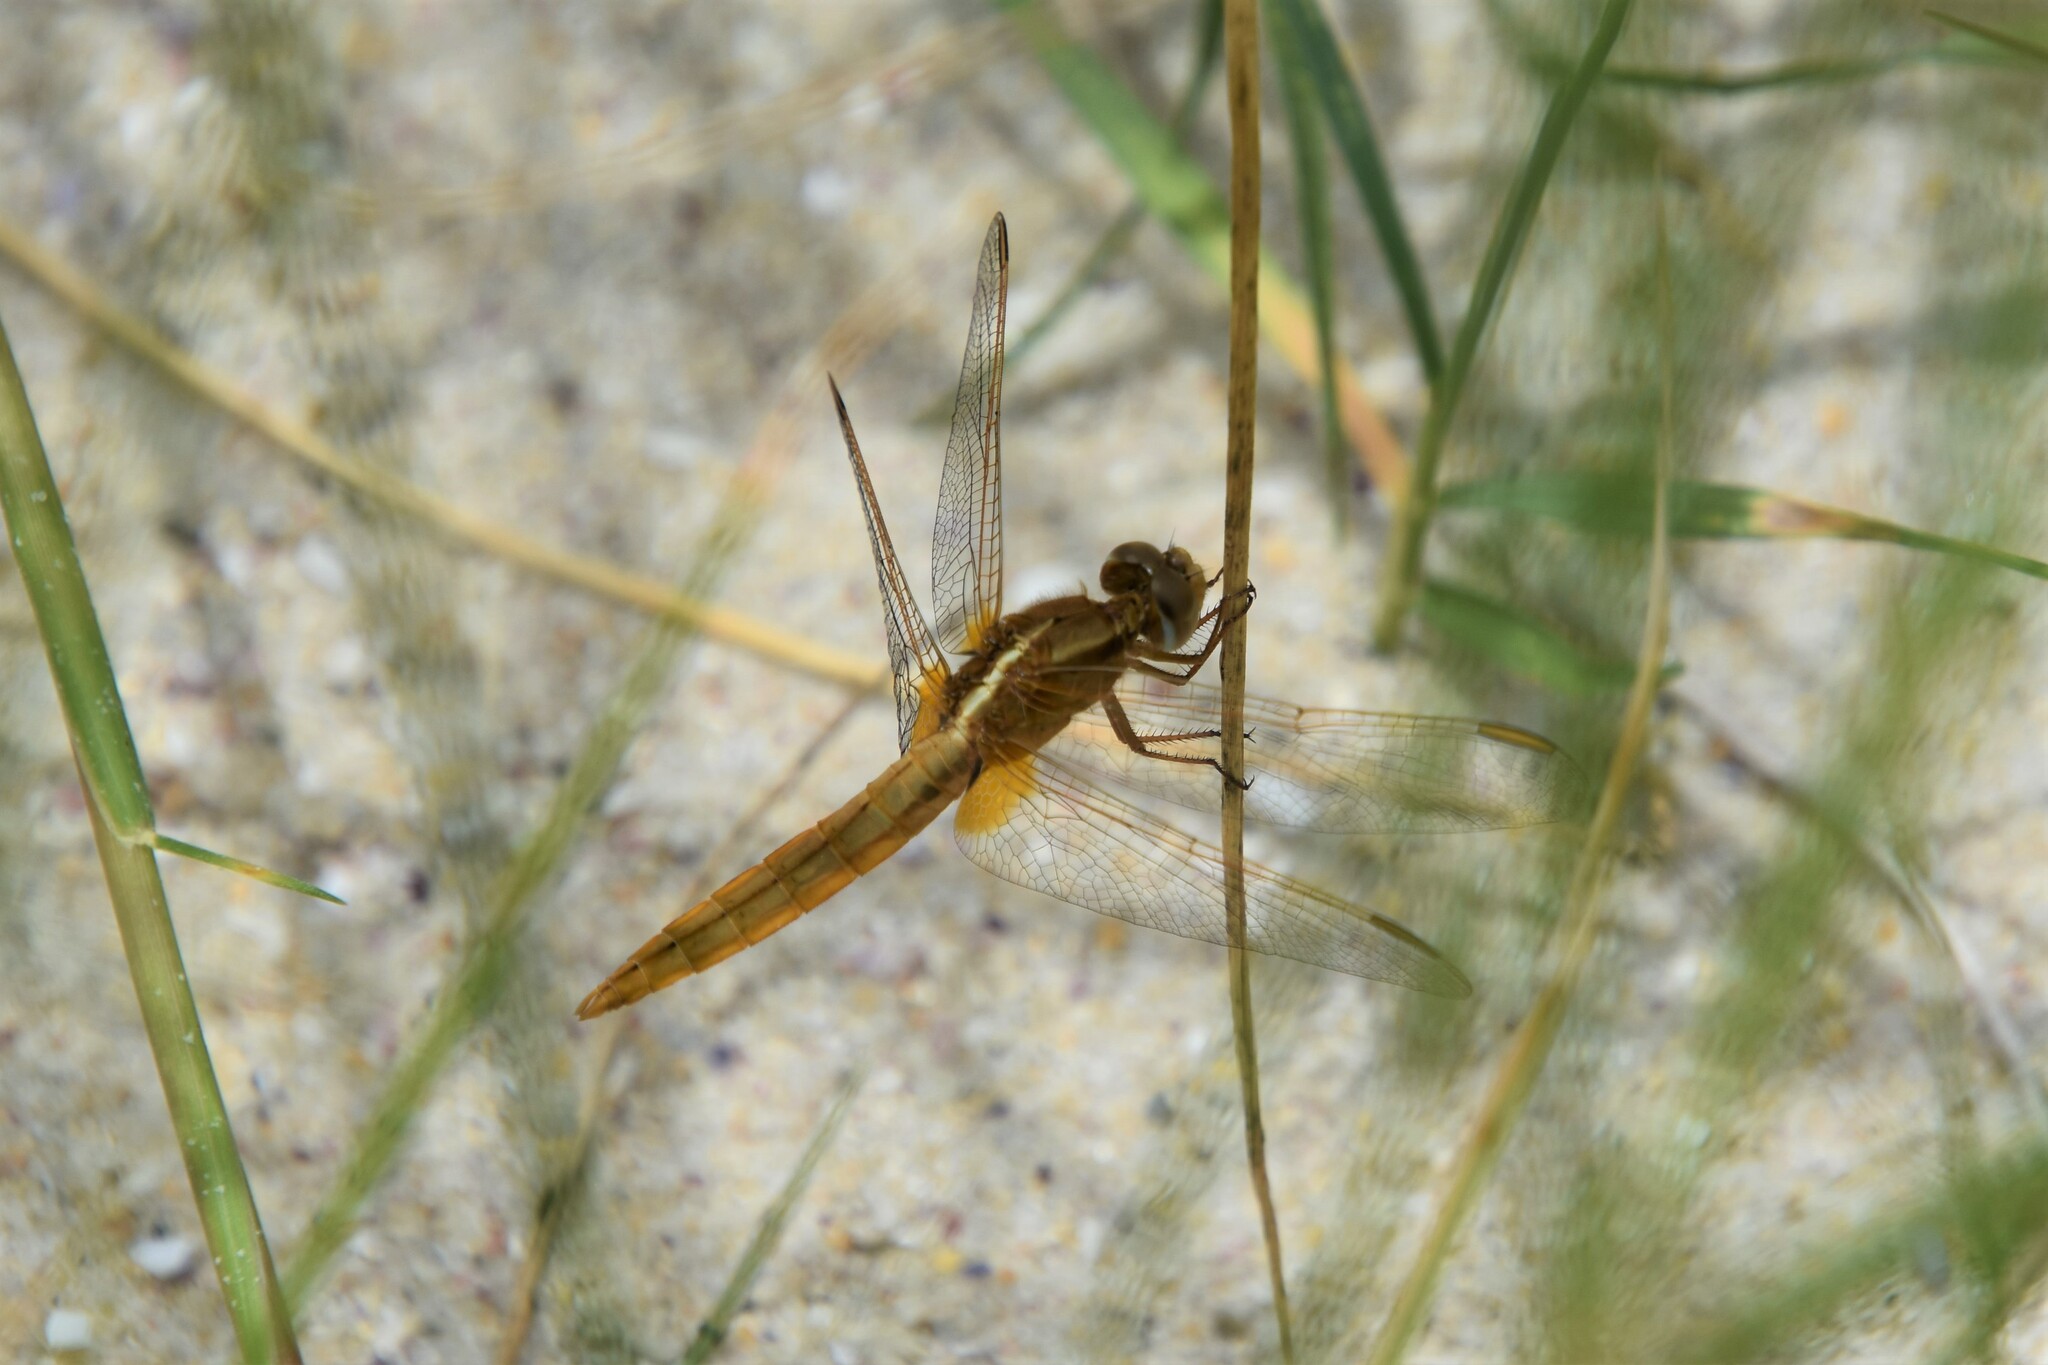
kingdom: Animalia
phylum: Arthropoda
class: Insecta
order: Odonata
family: Libellulidae
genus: Crocothemis
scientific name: Crocothemis erythraea
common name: Scarlet dragonfly
